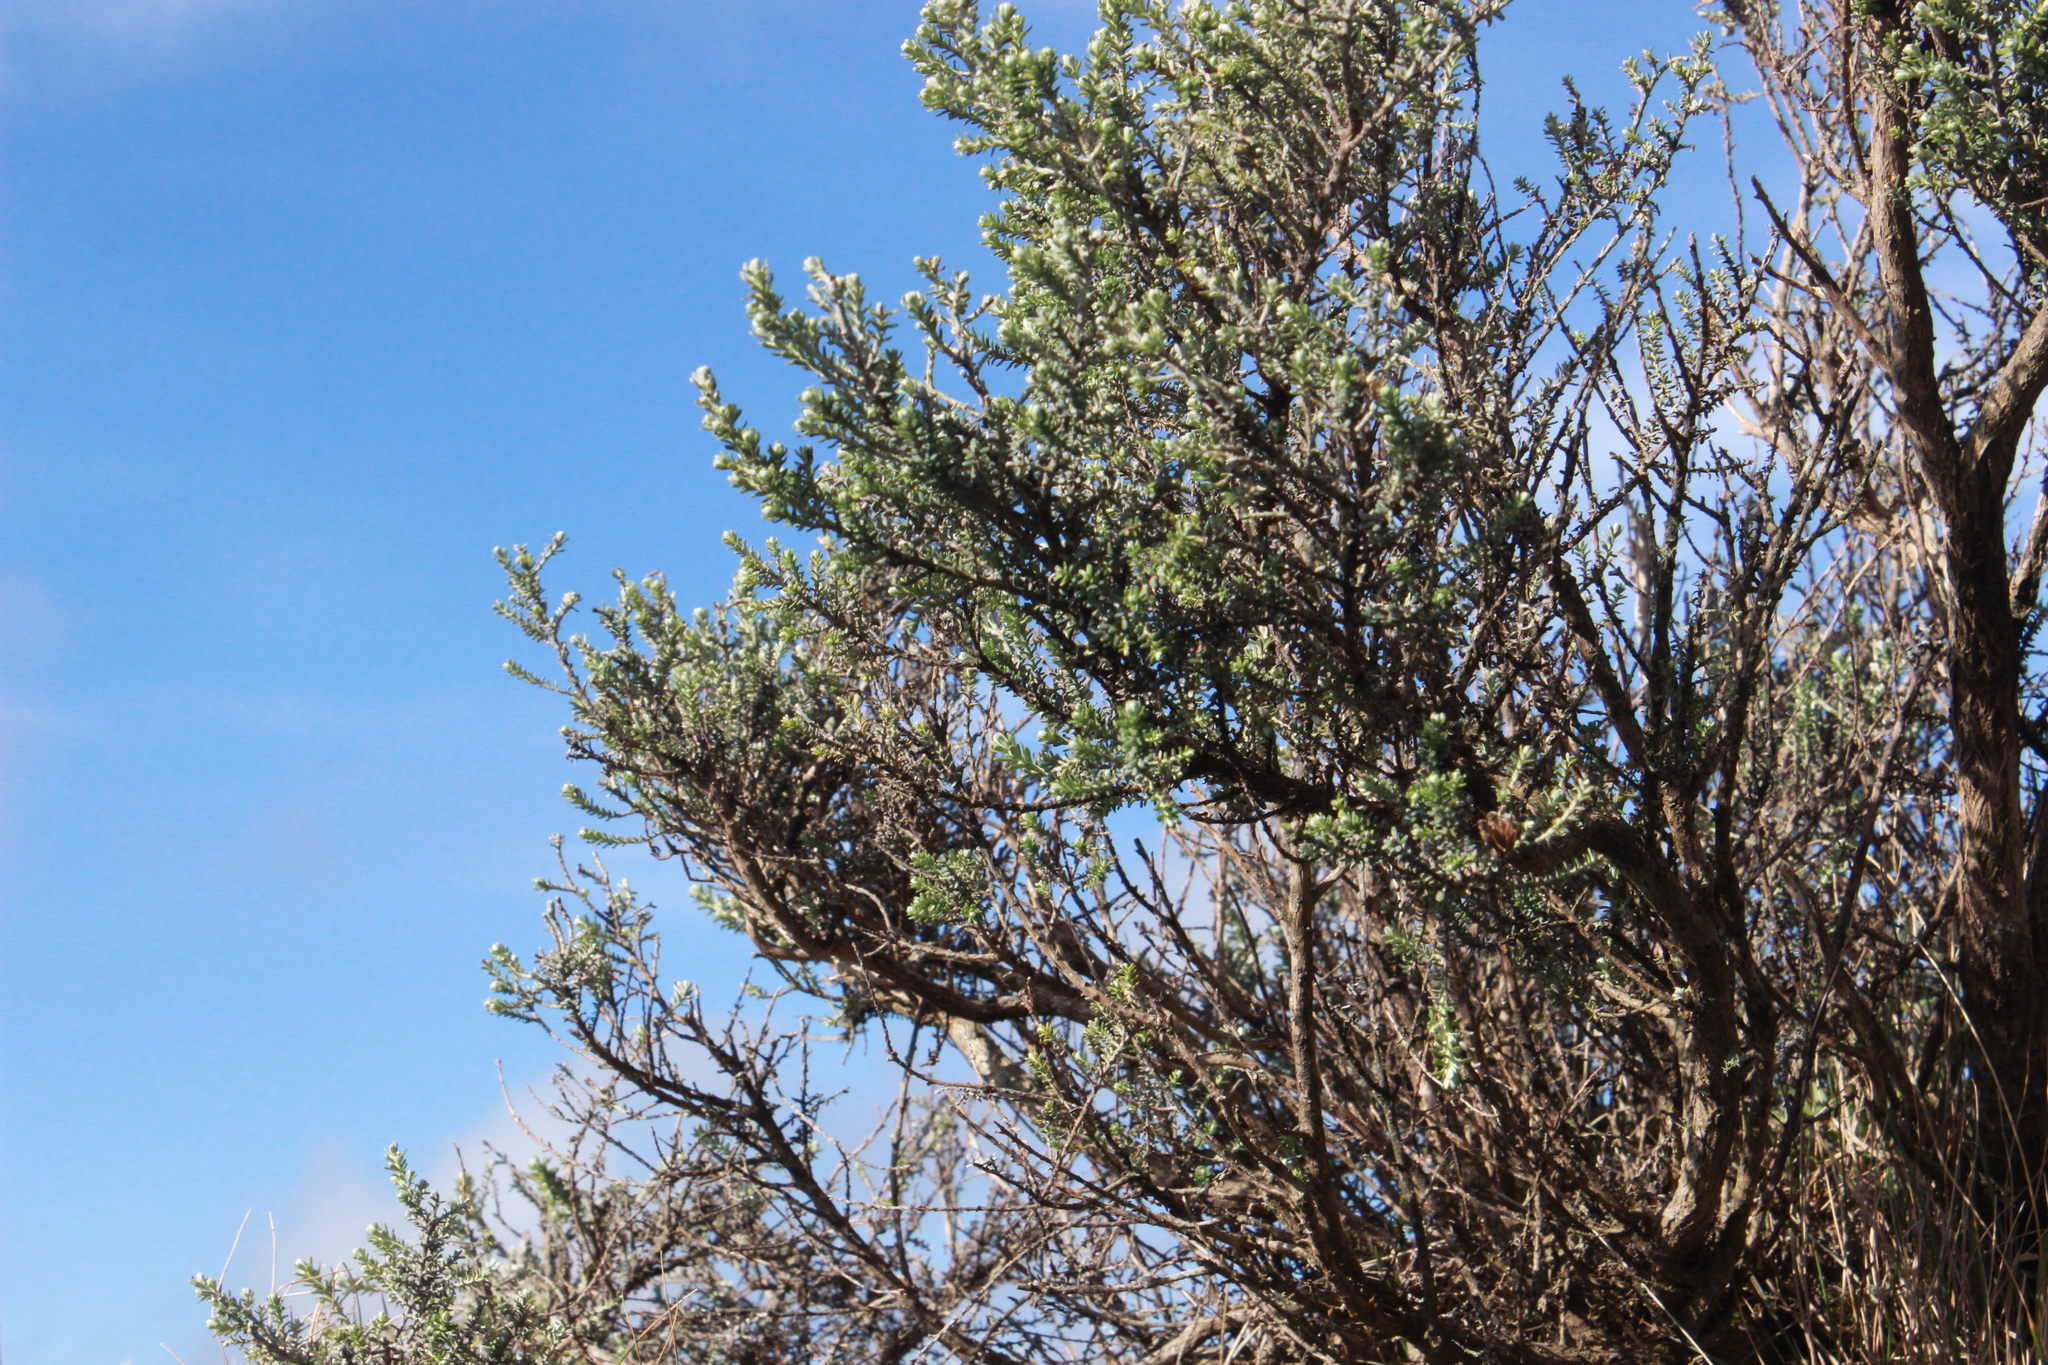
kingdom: Plantae
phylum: Tracheophyta
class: Magnoliopsida
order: Asterales
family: Asteraceae
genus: Ozothamnus
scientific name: Ozothamnus leptophyllus
